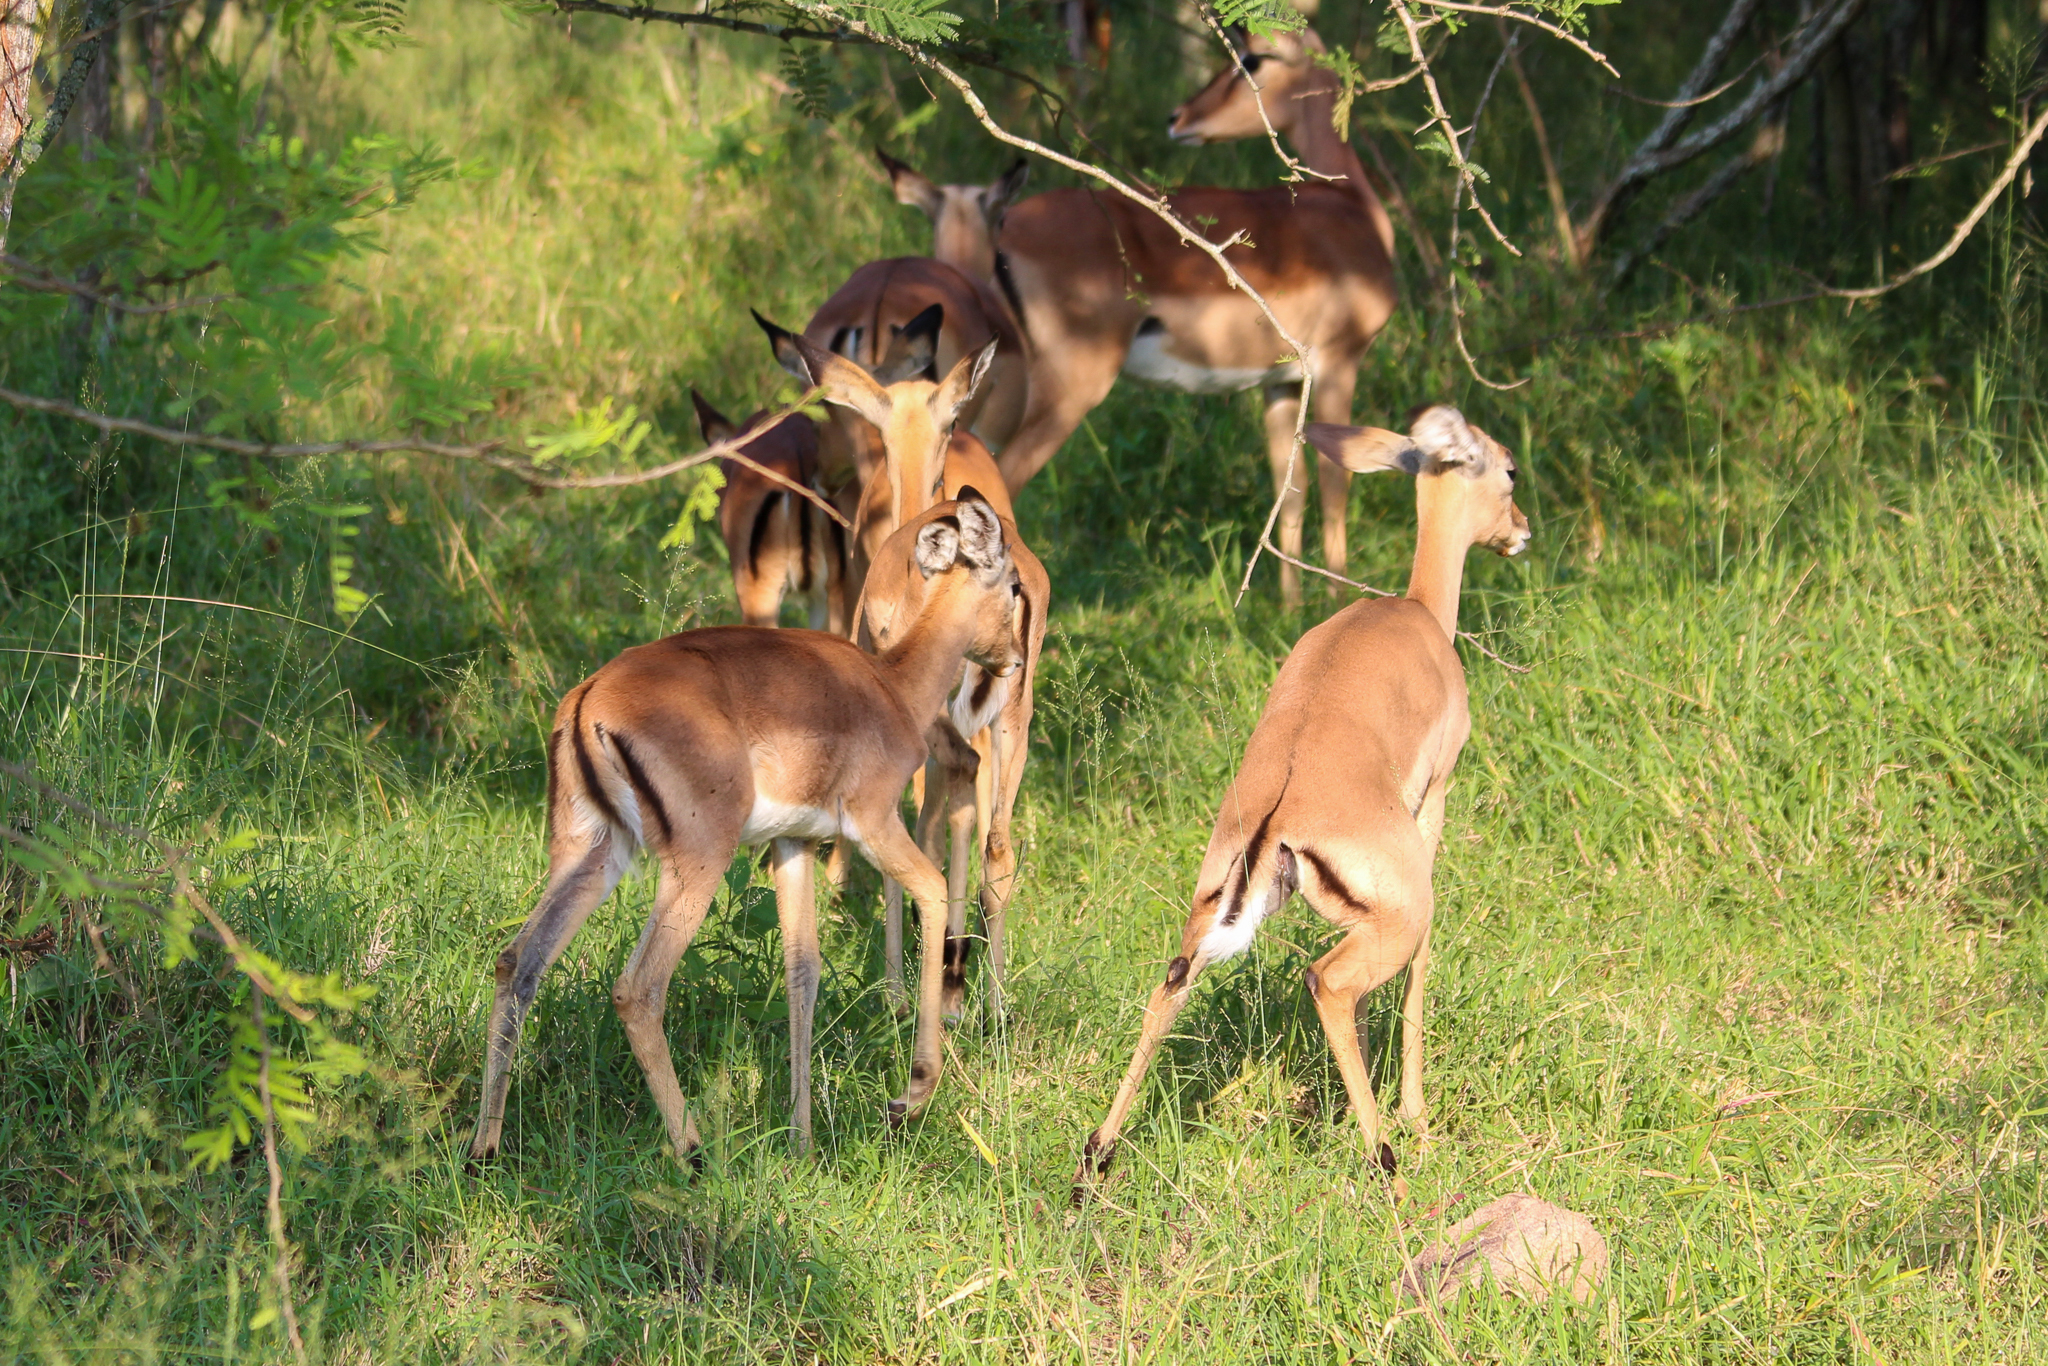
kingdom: Animalia
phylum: Chordata
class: Mammalia
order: Artiodactyla
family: Bovidae
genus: Aepyceros
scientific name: Aepyceros melampus
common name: Impala
